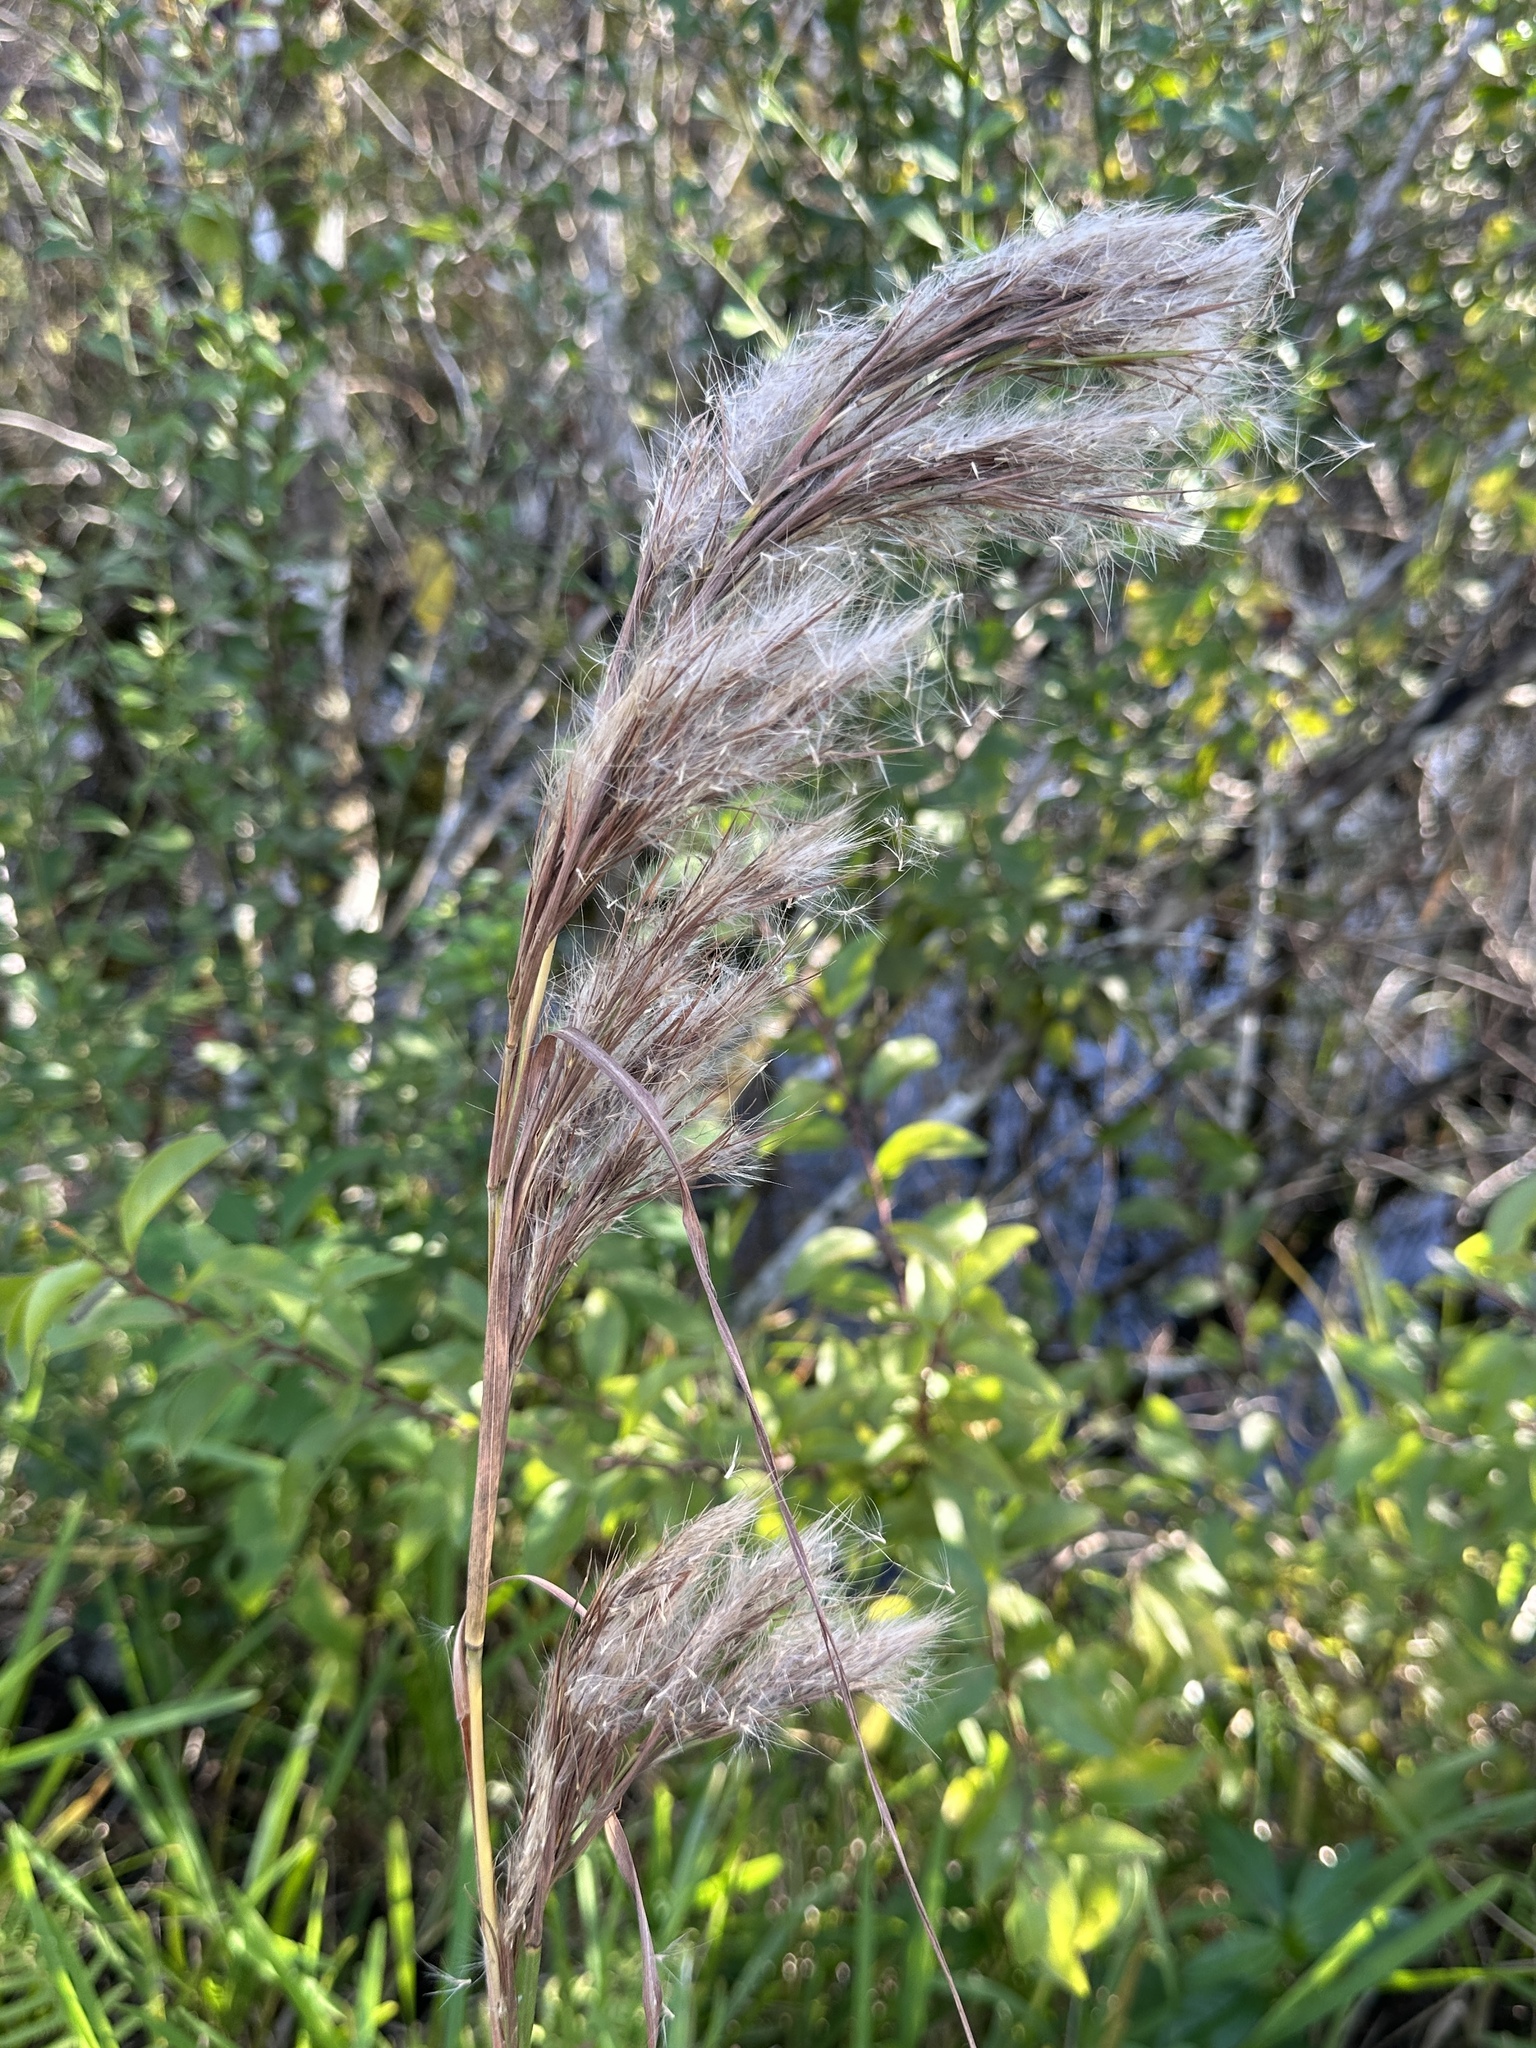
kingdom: Plantae
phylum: Tracheophyta
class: Liliopsida
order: Poales
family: Poaceae
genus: Andropogon
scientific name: Andropogon tenuispatheus
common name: Bushy bluestem
